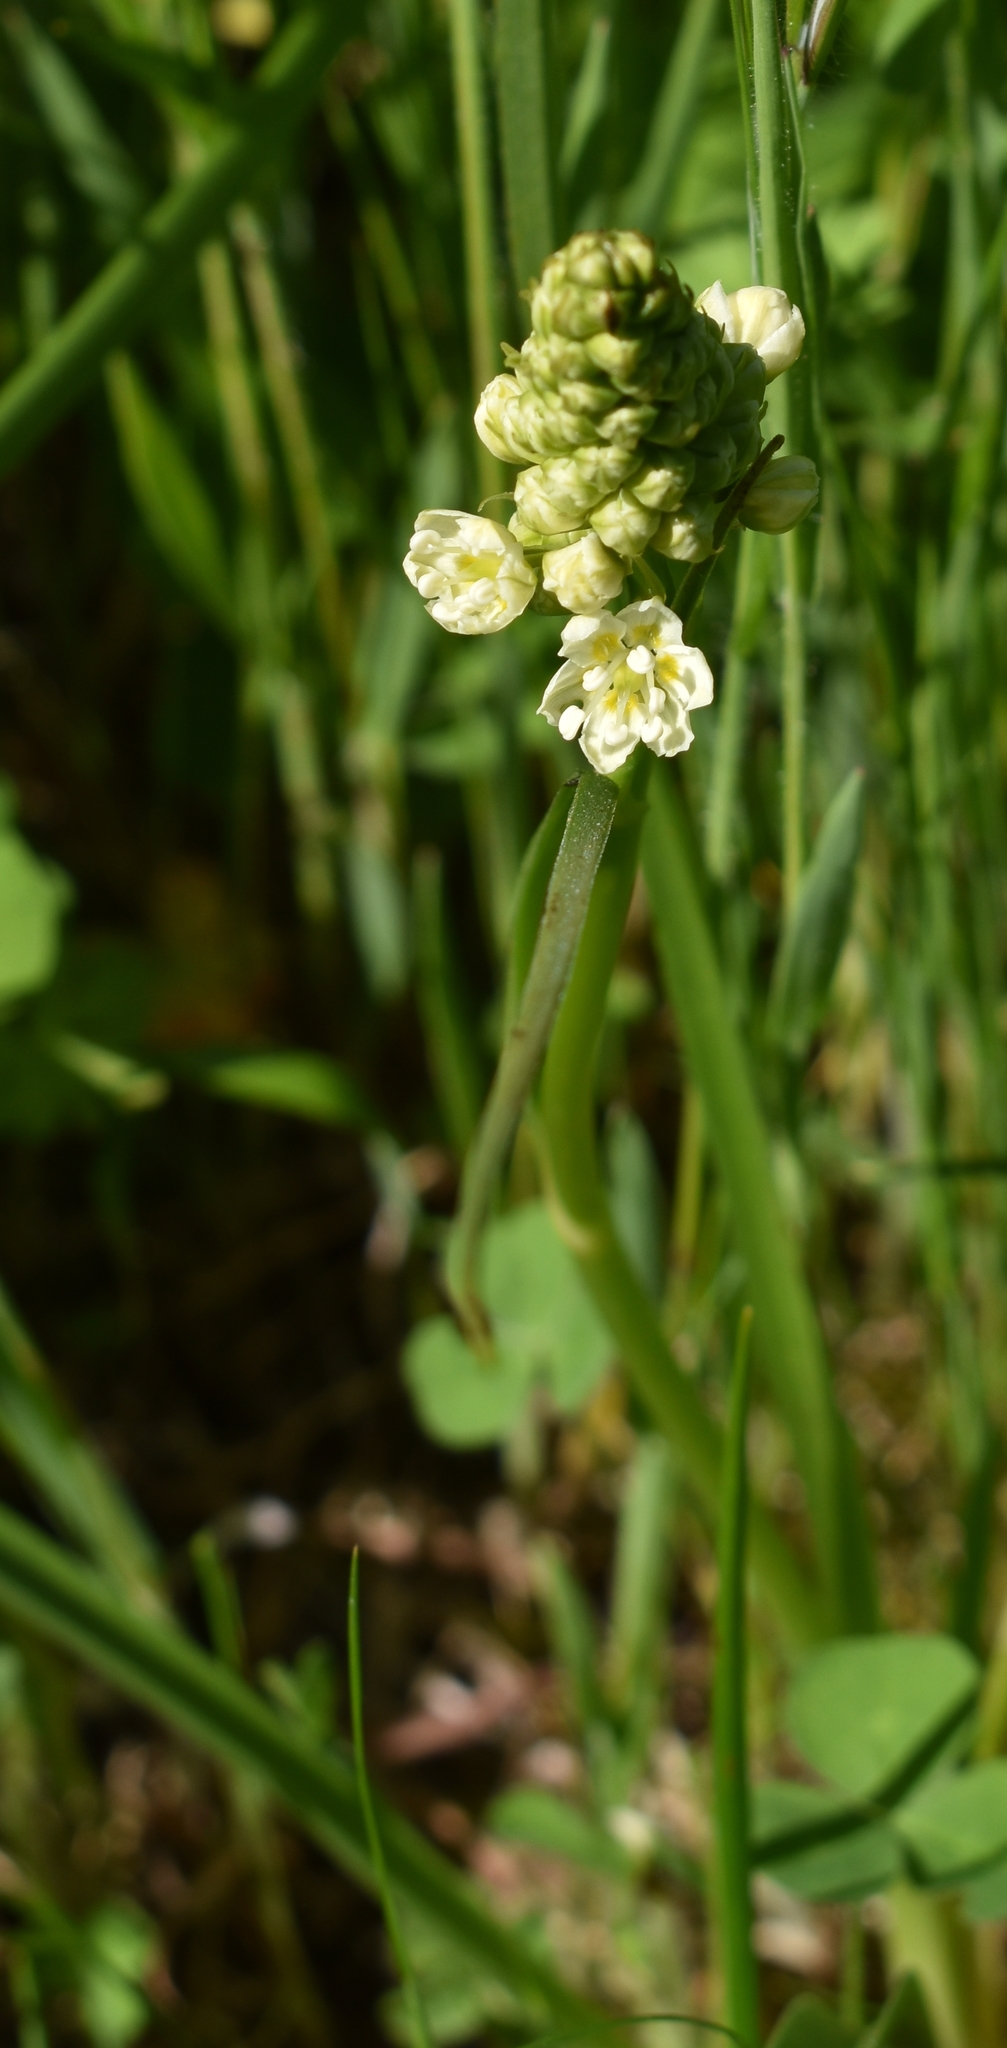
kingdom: Plantae
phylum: Tracheophyta
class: Liliopsida
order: Liliales
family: Melanthiaceae
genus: Toxicoscordion
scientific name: Toxicoscordion venenosum
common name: Meadow death camas
